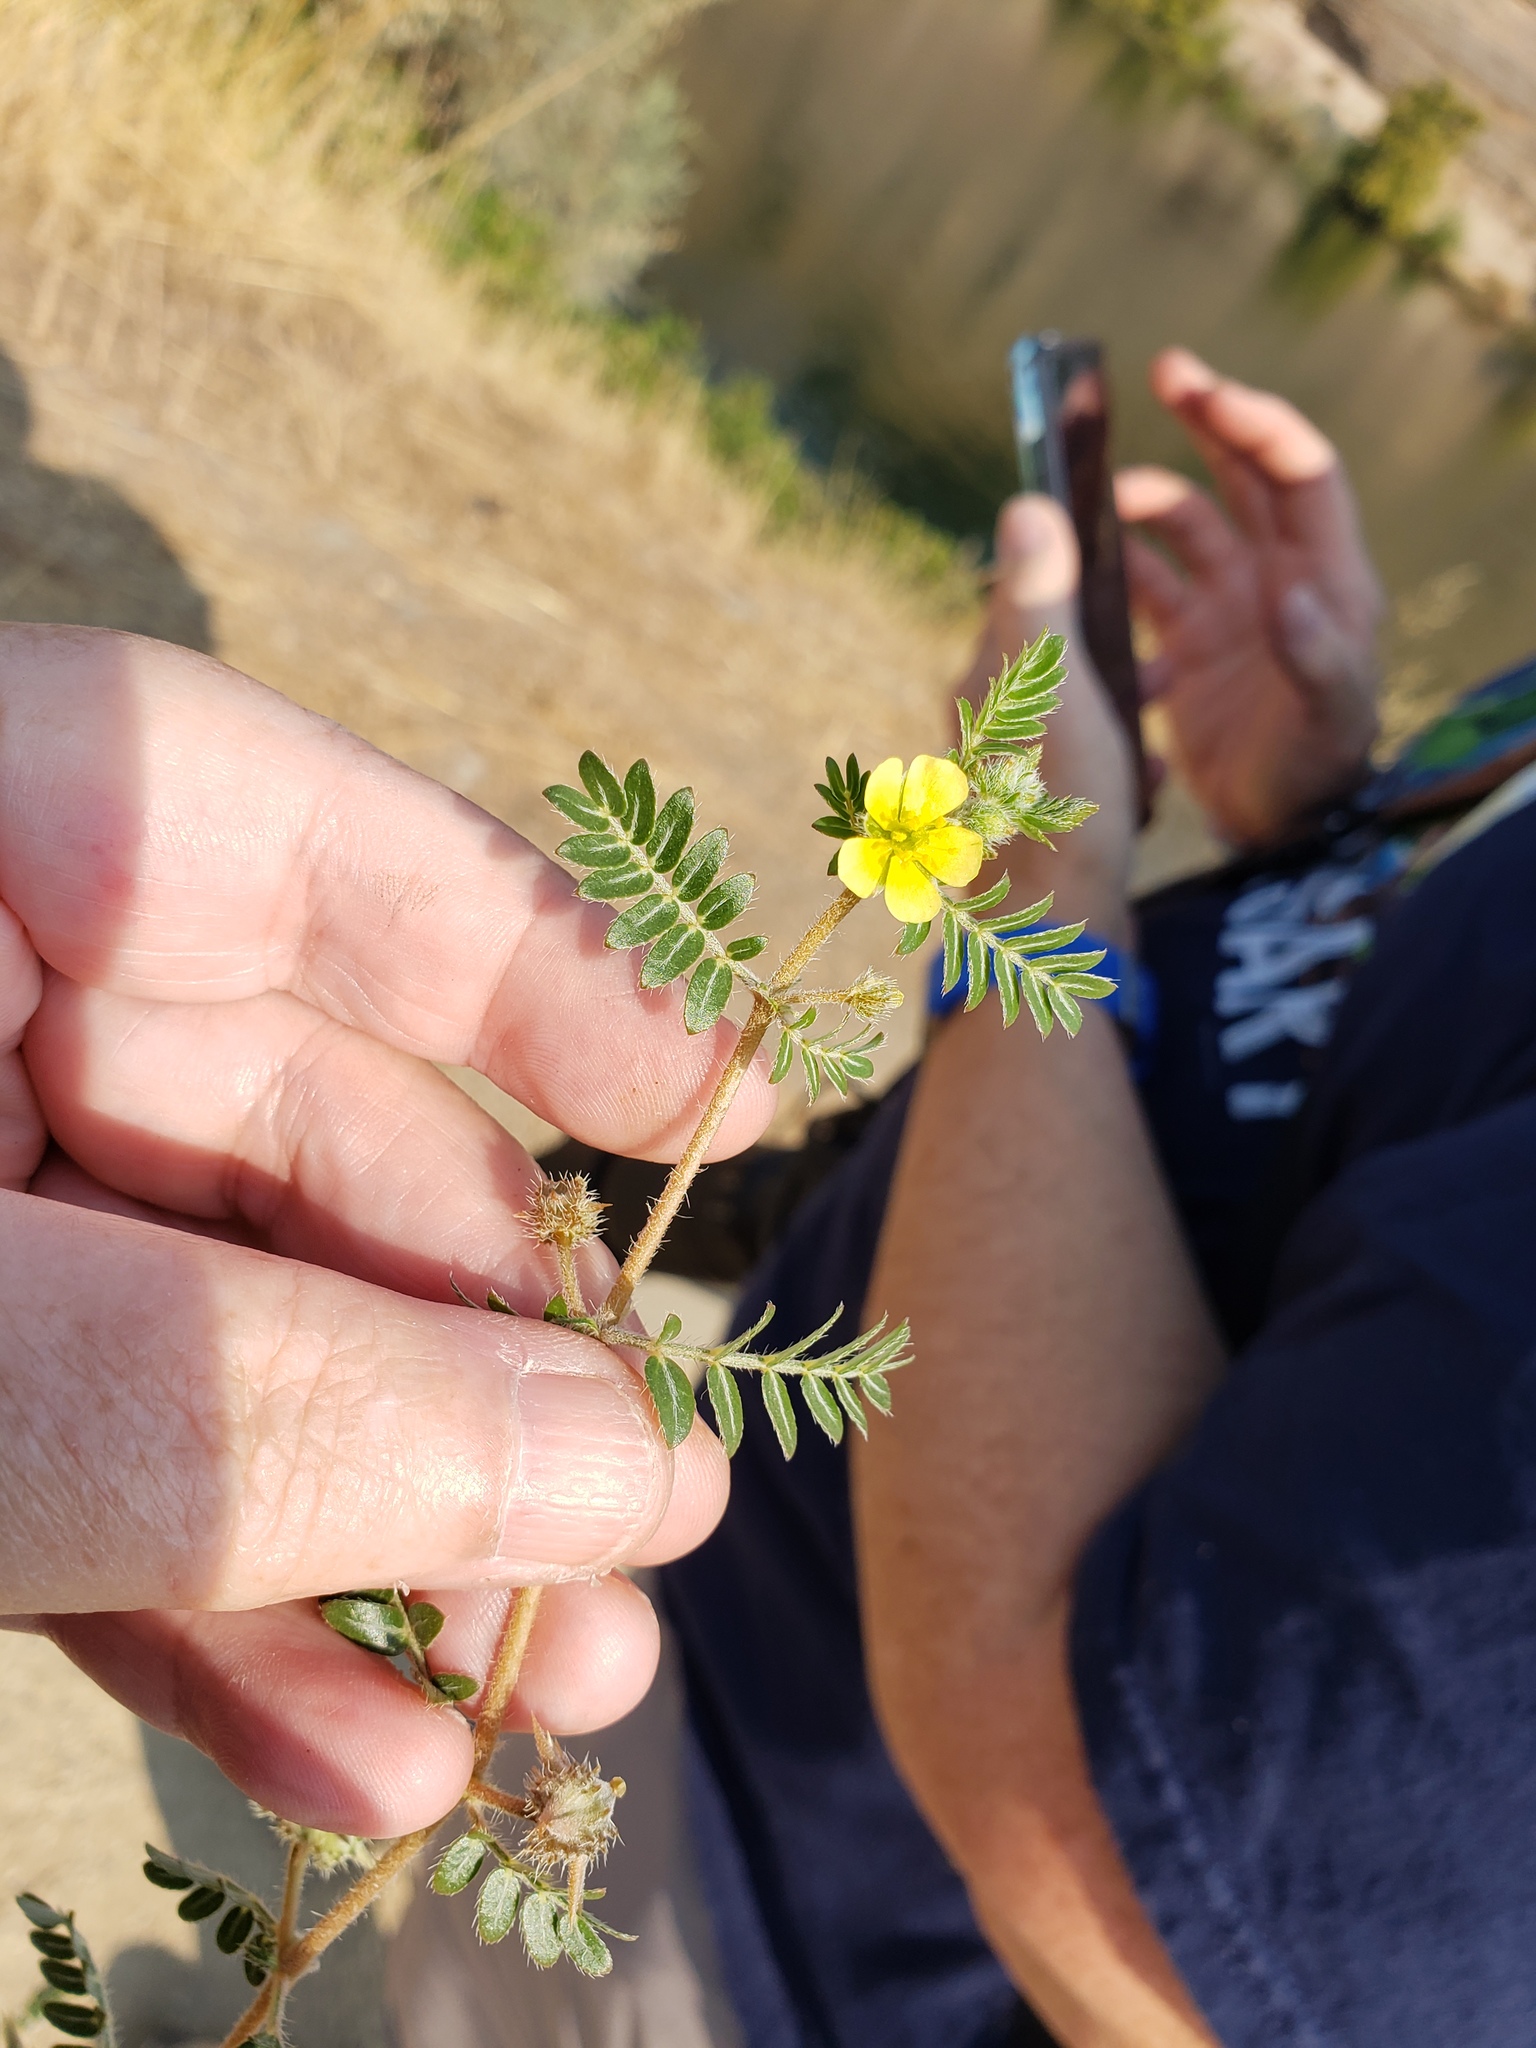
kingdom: Plantae
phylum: Tracheophyta
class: Magnoliopsida
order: Zygophyllales
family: Zygophyllaceae
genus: Tribulus
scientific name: Tribulus terrestris
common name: Puncturevine
